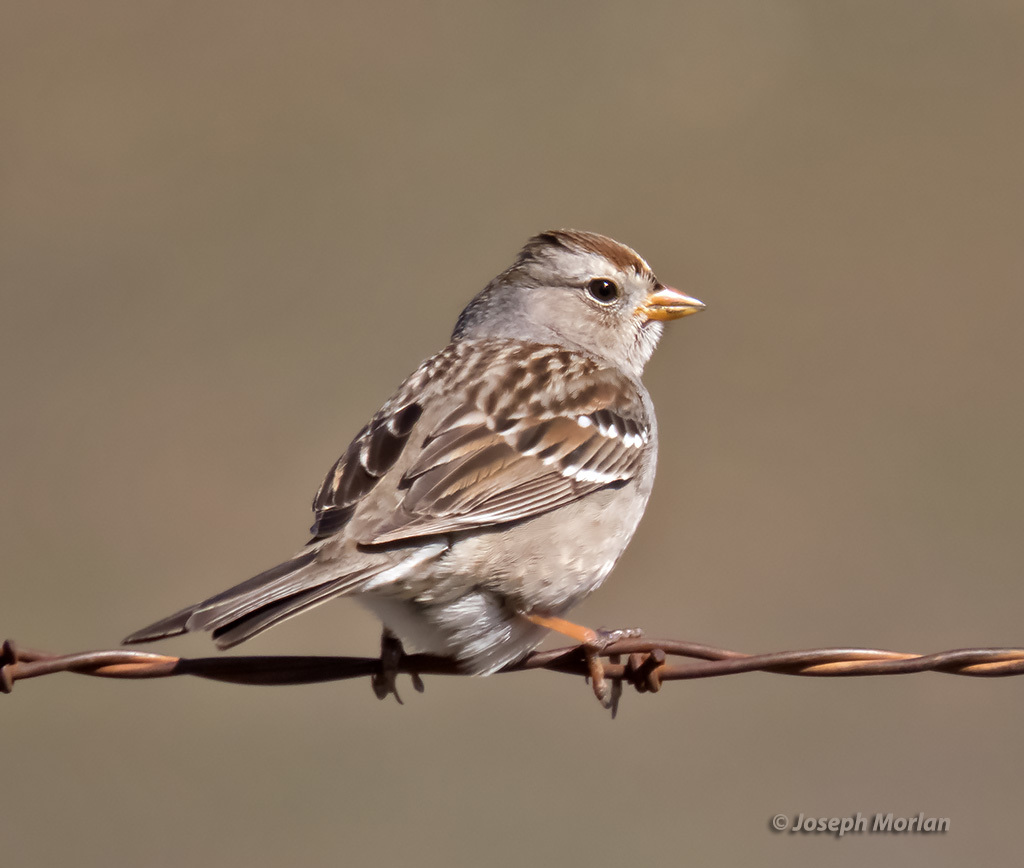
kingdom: Animalia
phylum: Chordata
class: Aves
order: Passeriformes
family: Passerellidae
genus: Zonotrichia
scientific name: Zonotrichia leucophrys
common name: White-crowned sparrow
